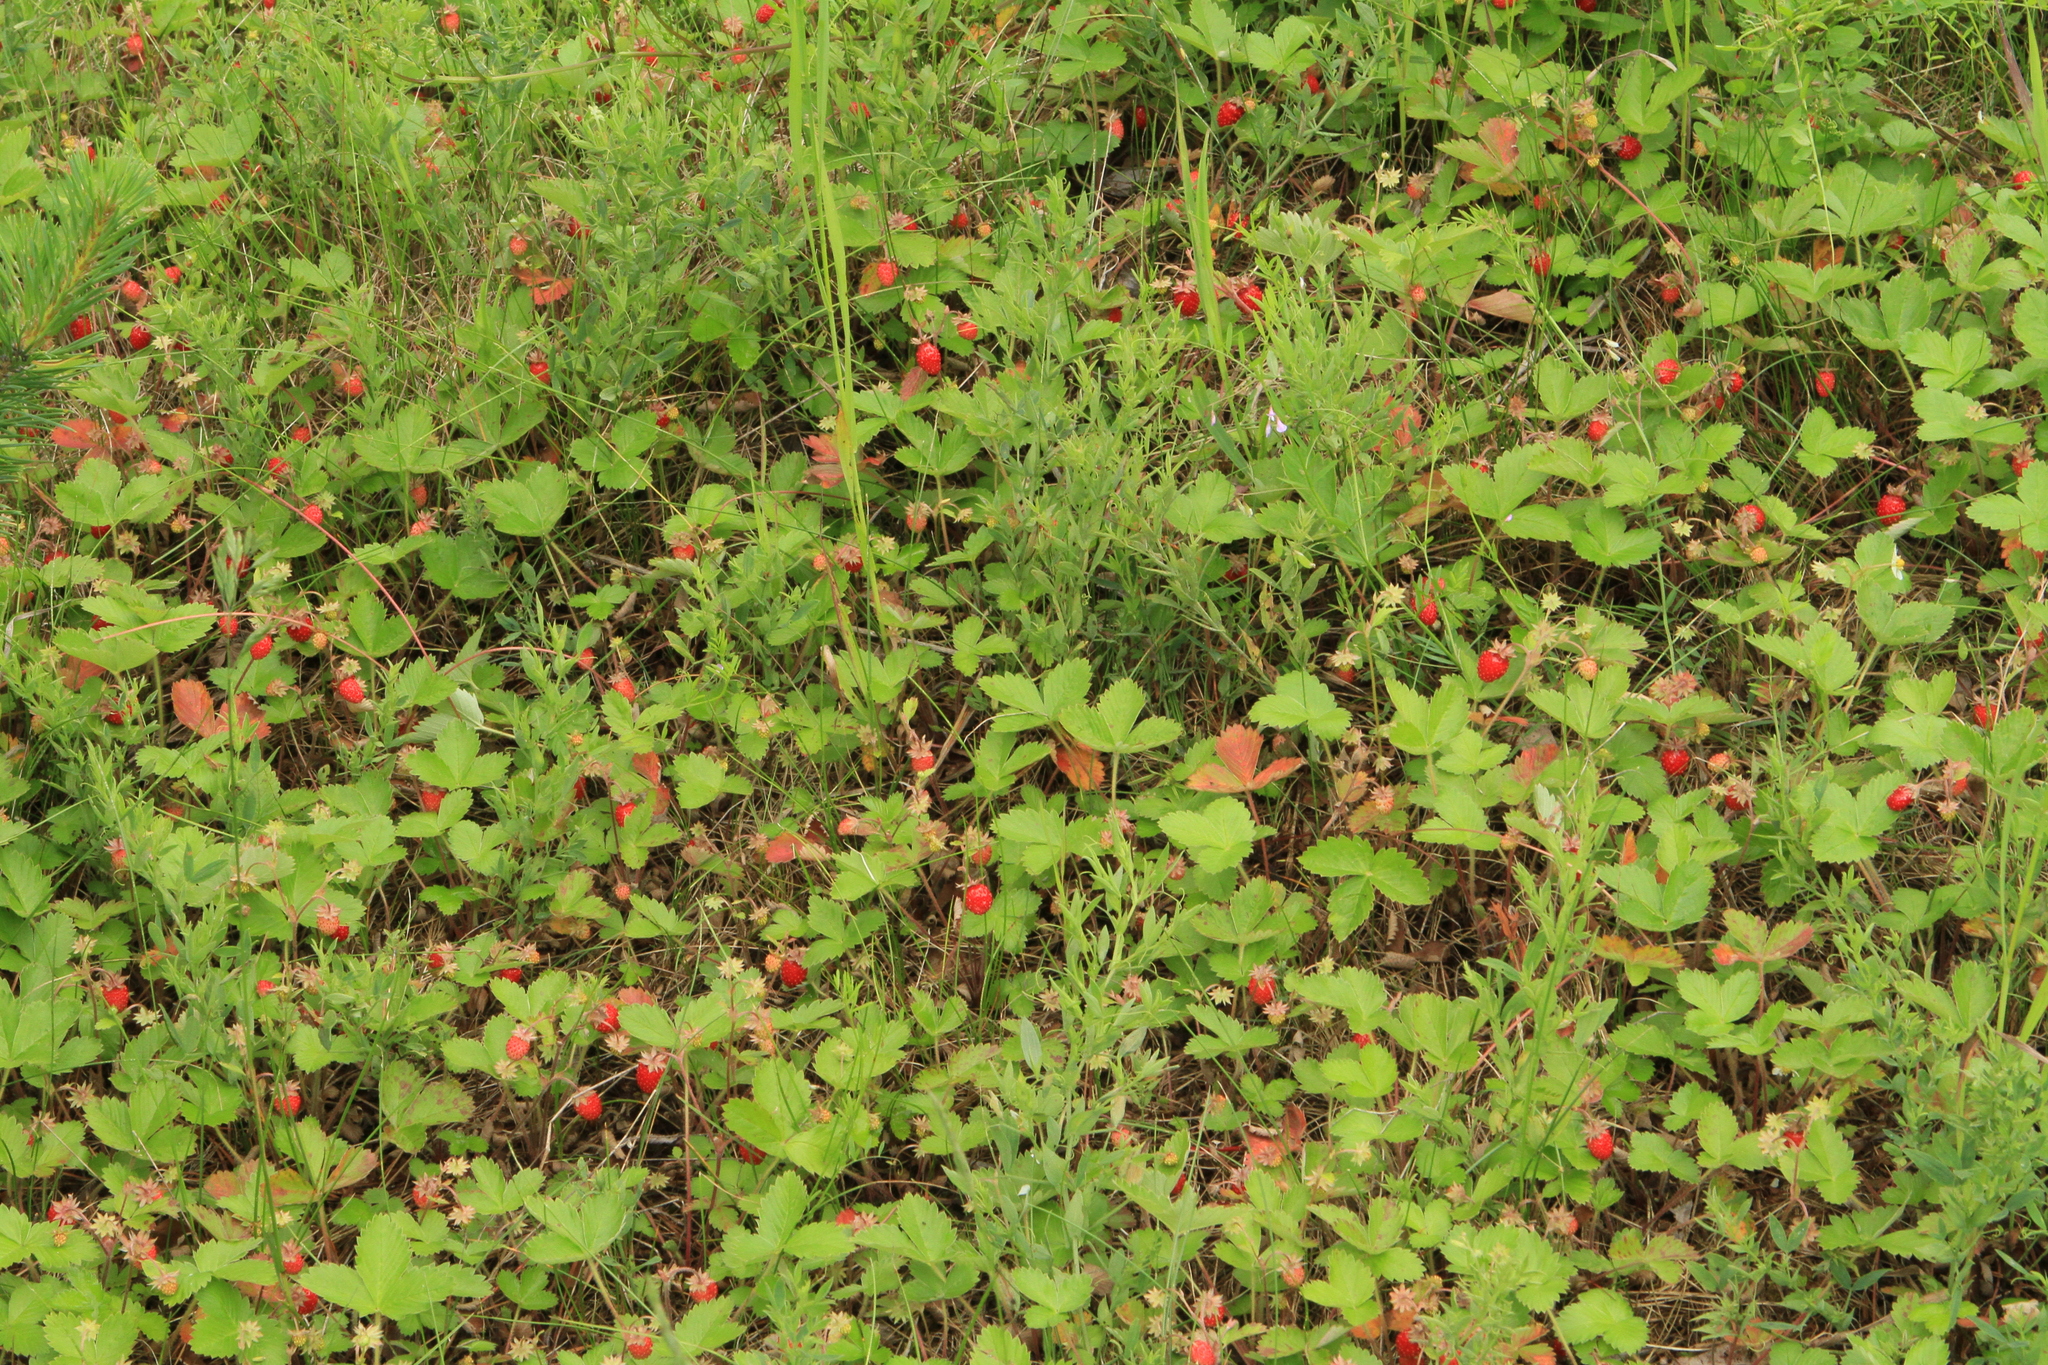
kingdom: Plantae
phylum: Tracheophyta
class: Magnoliopsida
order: Rosales
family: Rosaceae
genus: Fragaria
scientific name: Fragaria vesca
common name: Wild strawberry
